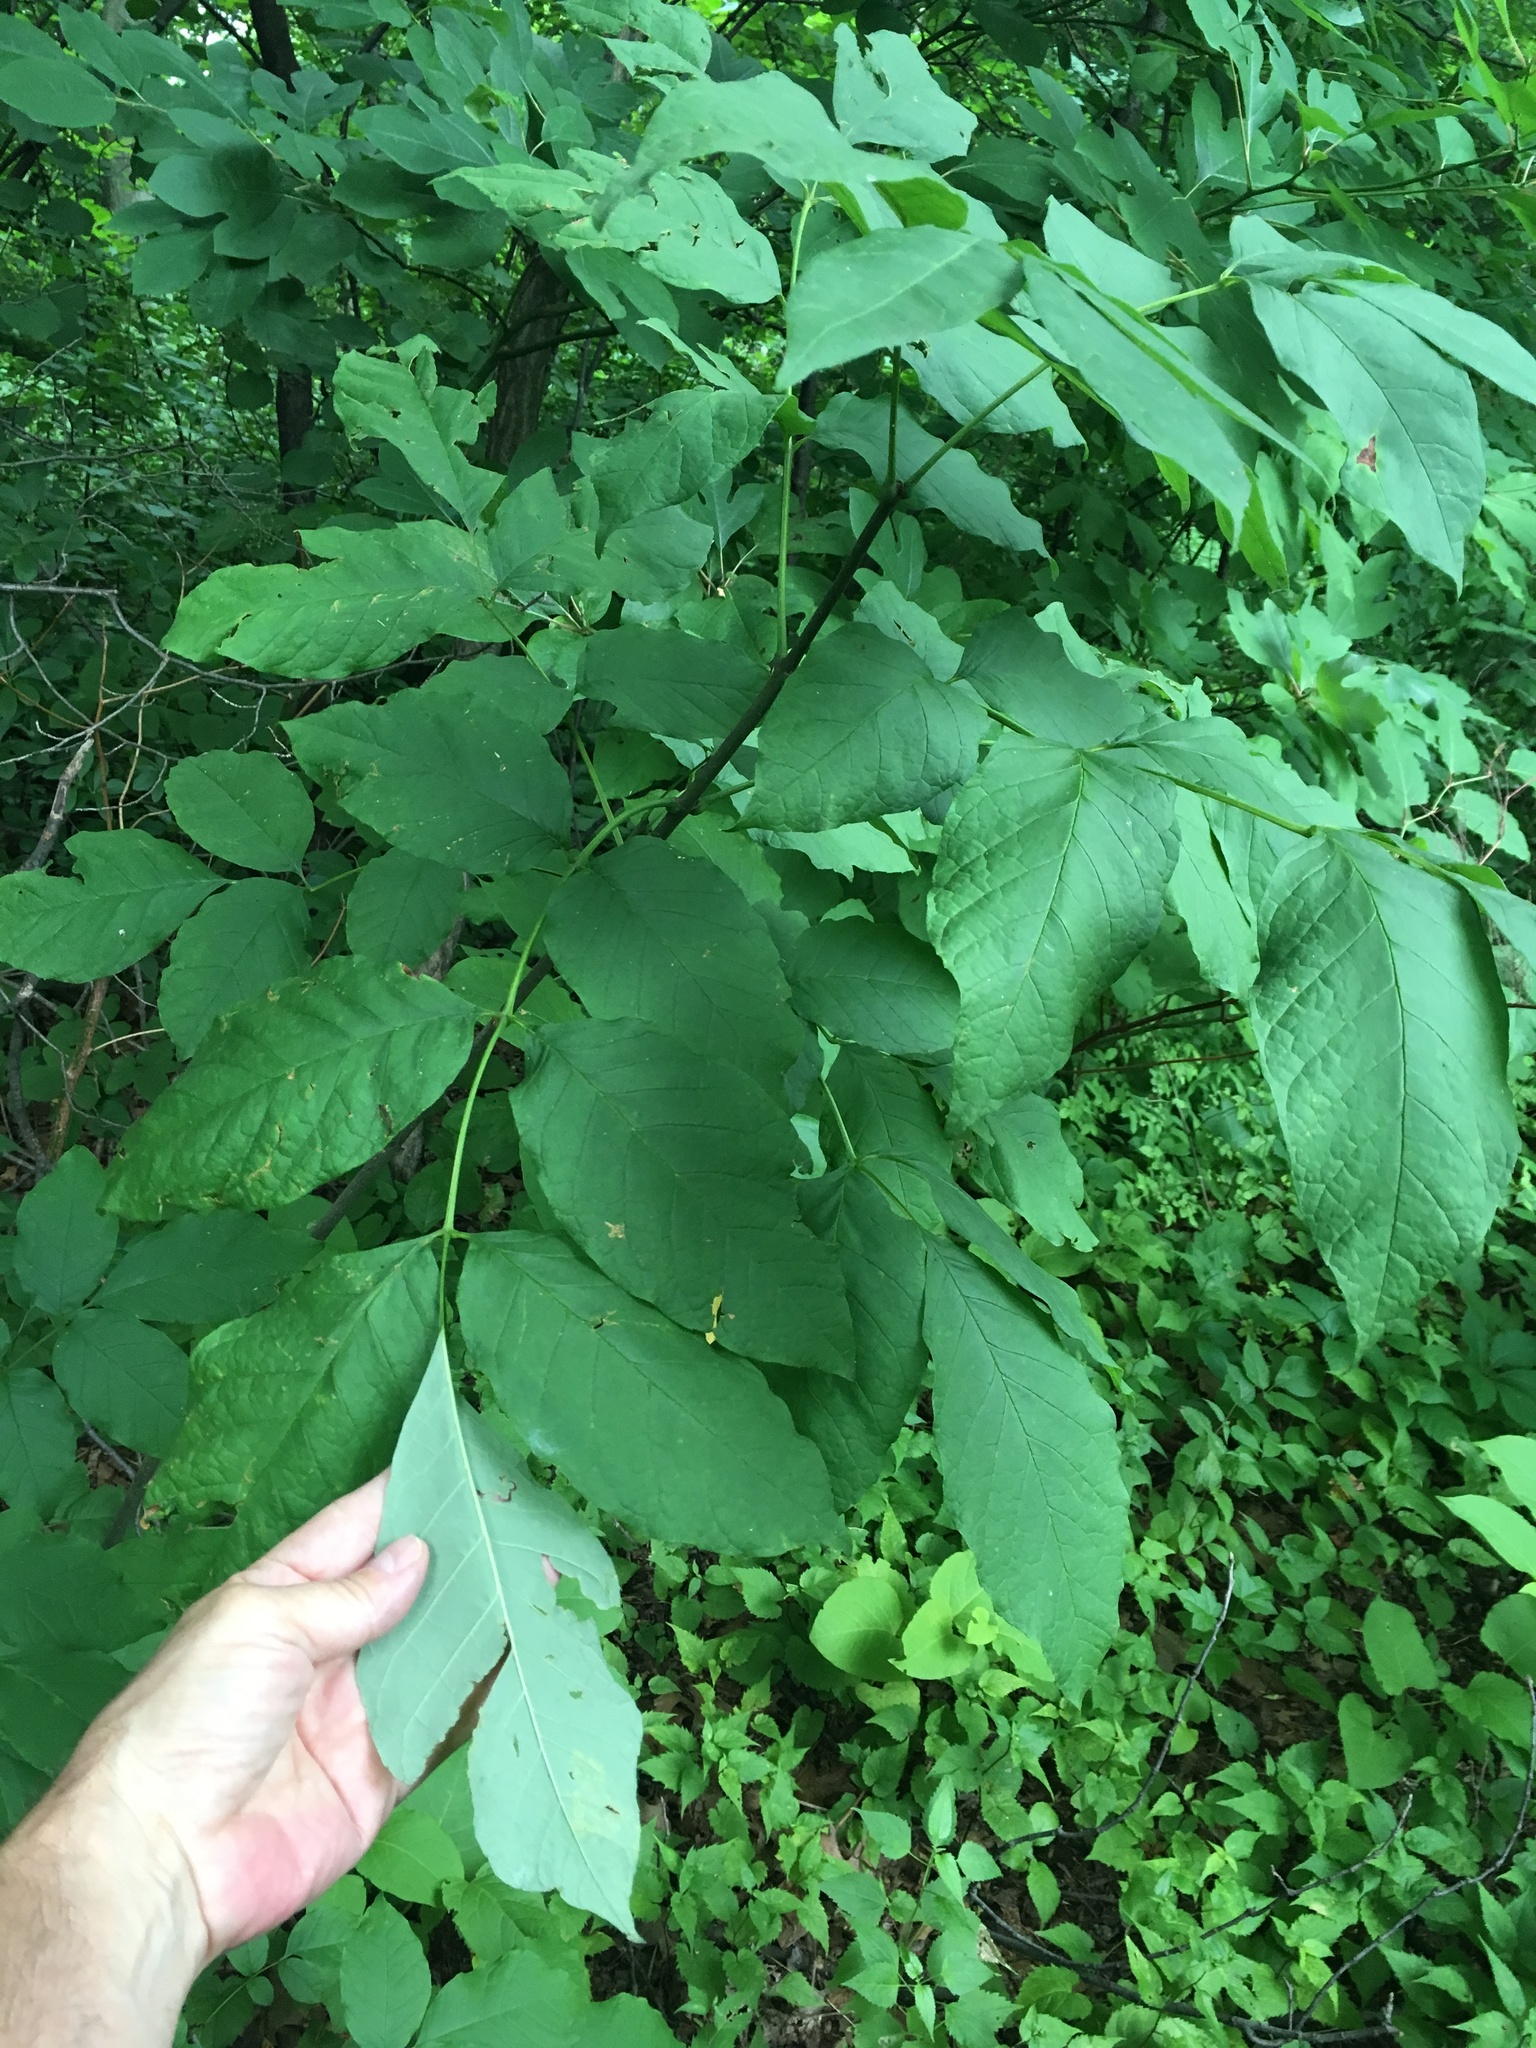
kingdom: Plantae
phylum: Tracheophyta
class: Magnoliopsida
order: Lamiales
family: Oleaceae
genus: Fraxinus
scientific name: Fraxinus americana
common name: White ash
